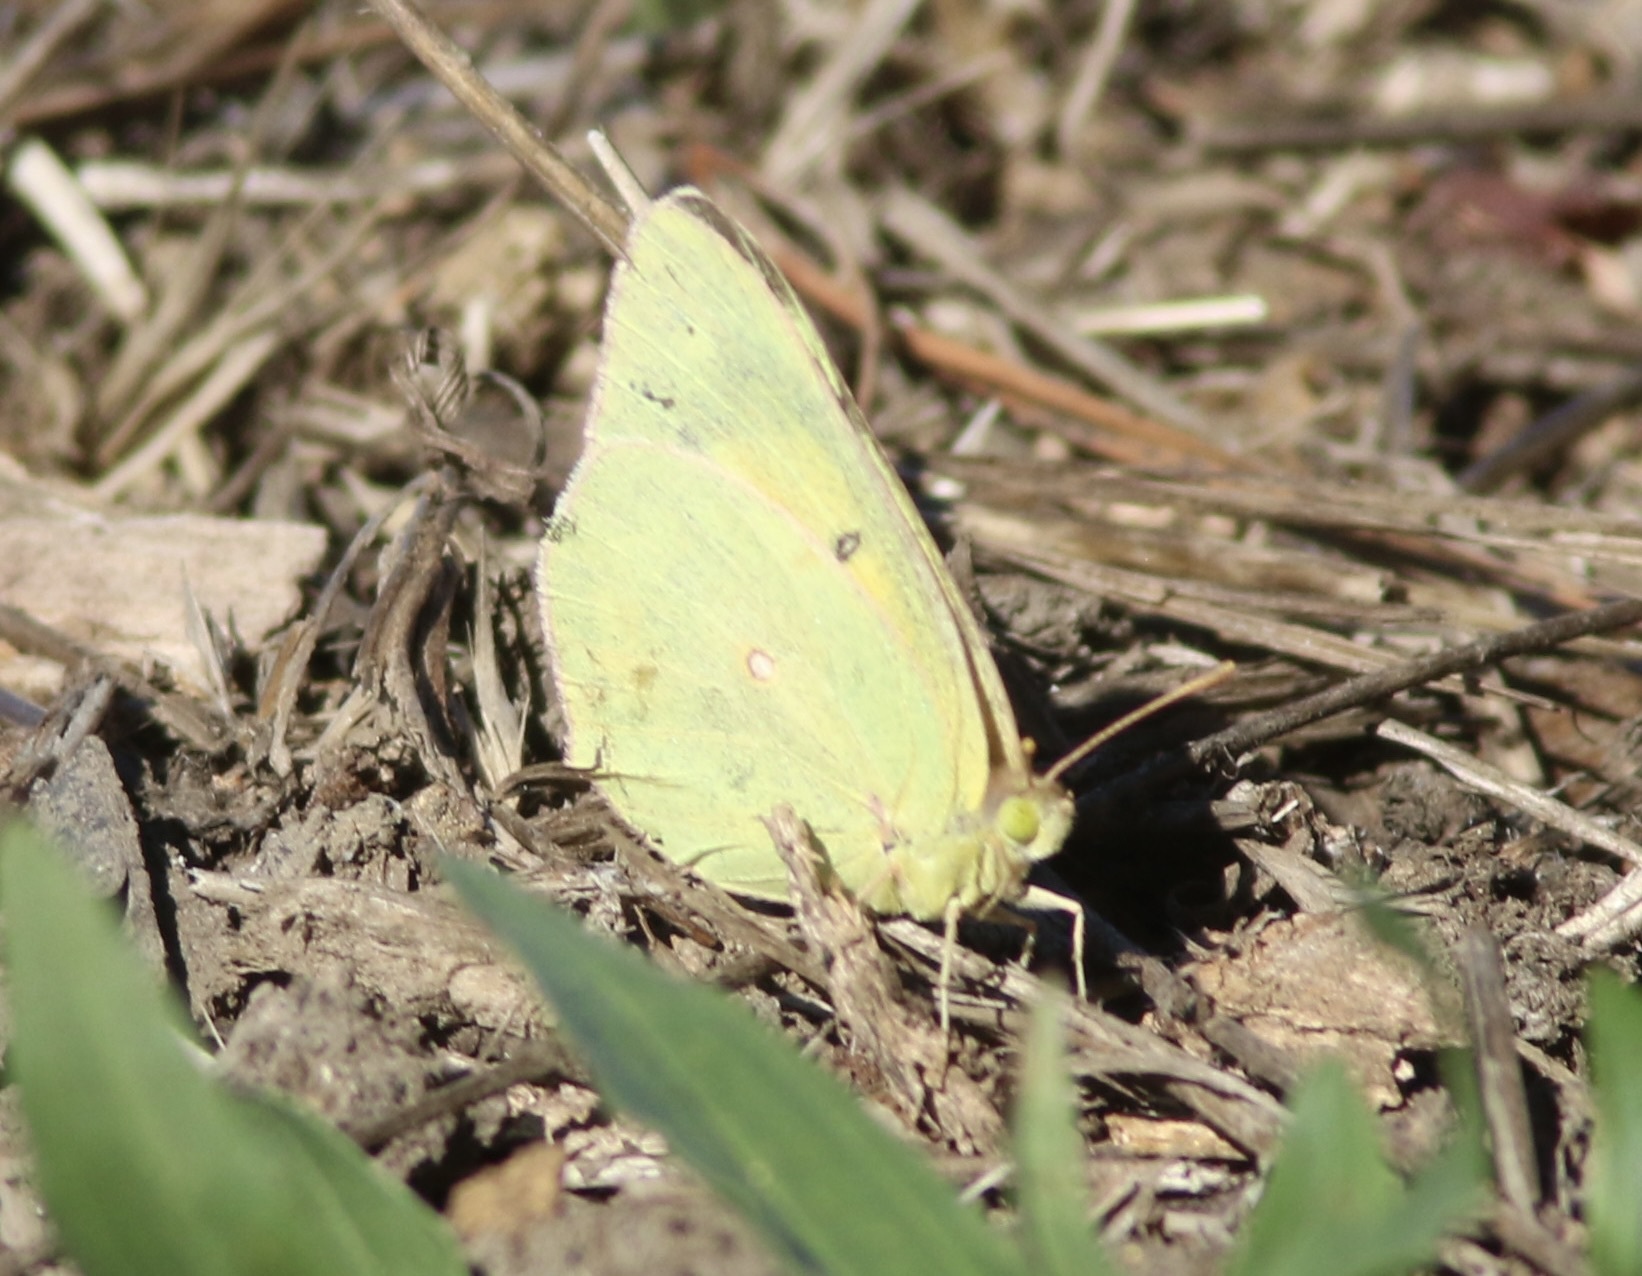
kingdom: Animalia
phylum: Arthropoda
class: Insecta
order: Lepidoptera
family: Pieridae
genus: Colias
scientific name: Colias eurytheme
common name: Alfalfa butterfly
